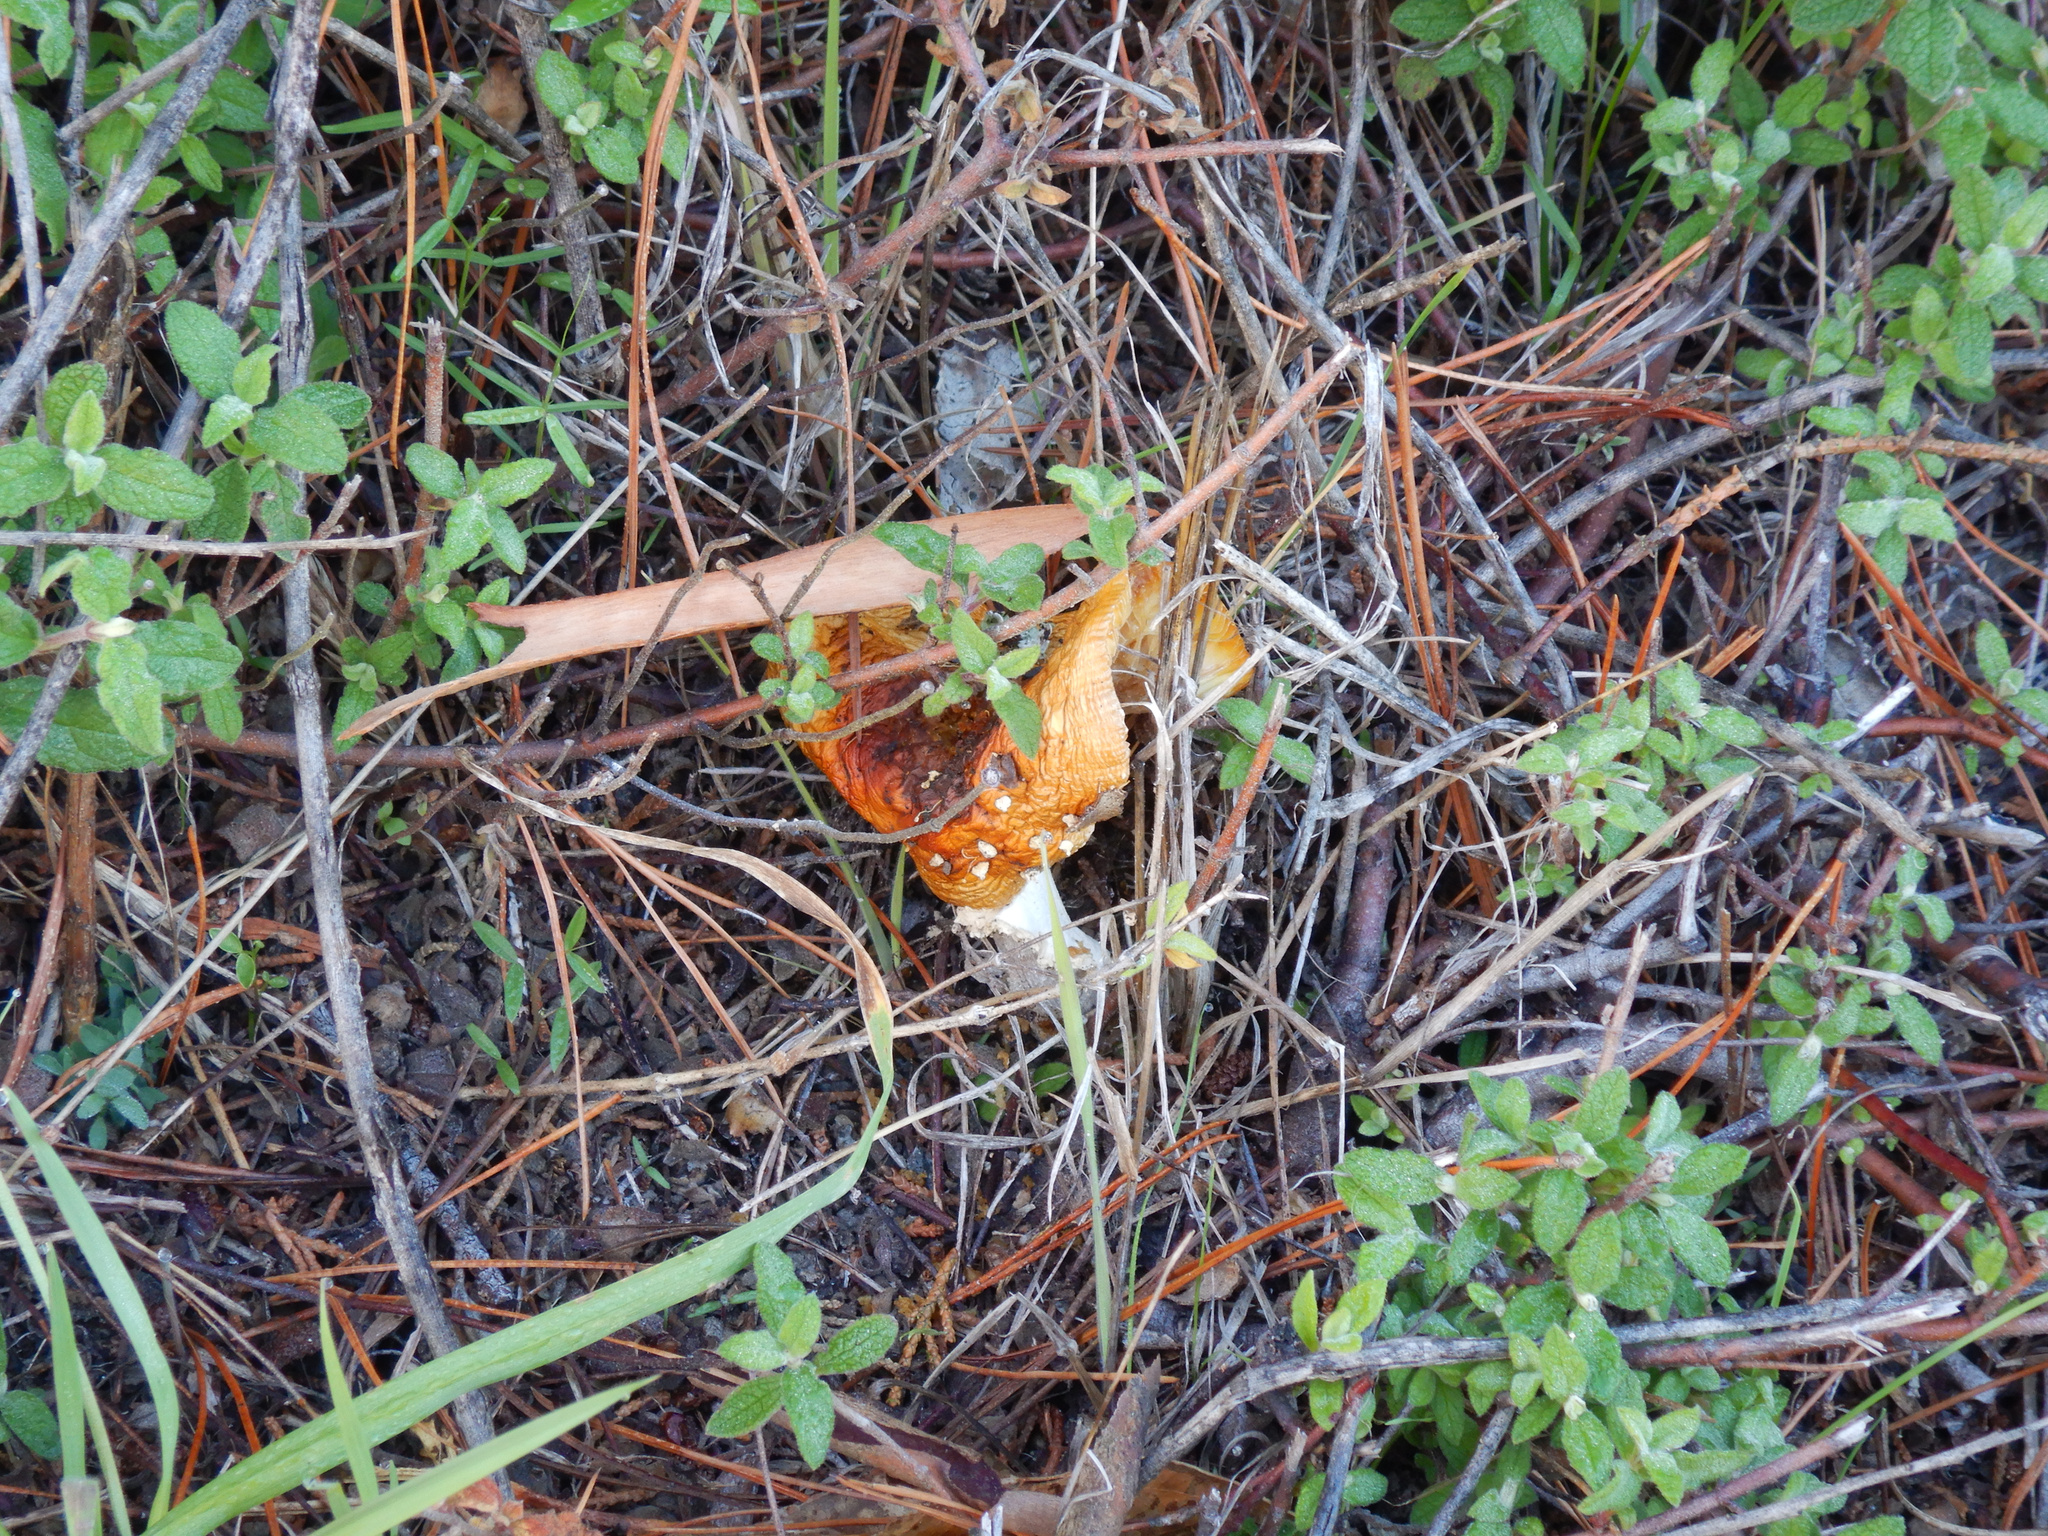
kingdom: Fungi
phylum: Basidiomycota
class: Agaricomycetes
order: Agaricales
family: Amanitaceae
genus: Amanita
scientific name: Amanita muscaria
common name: Fly agaric
